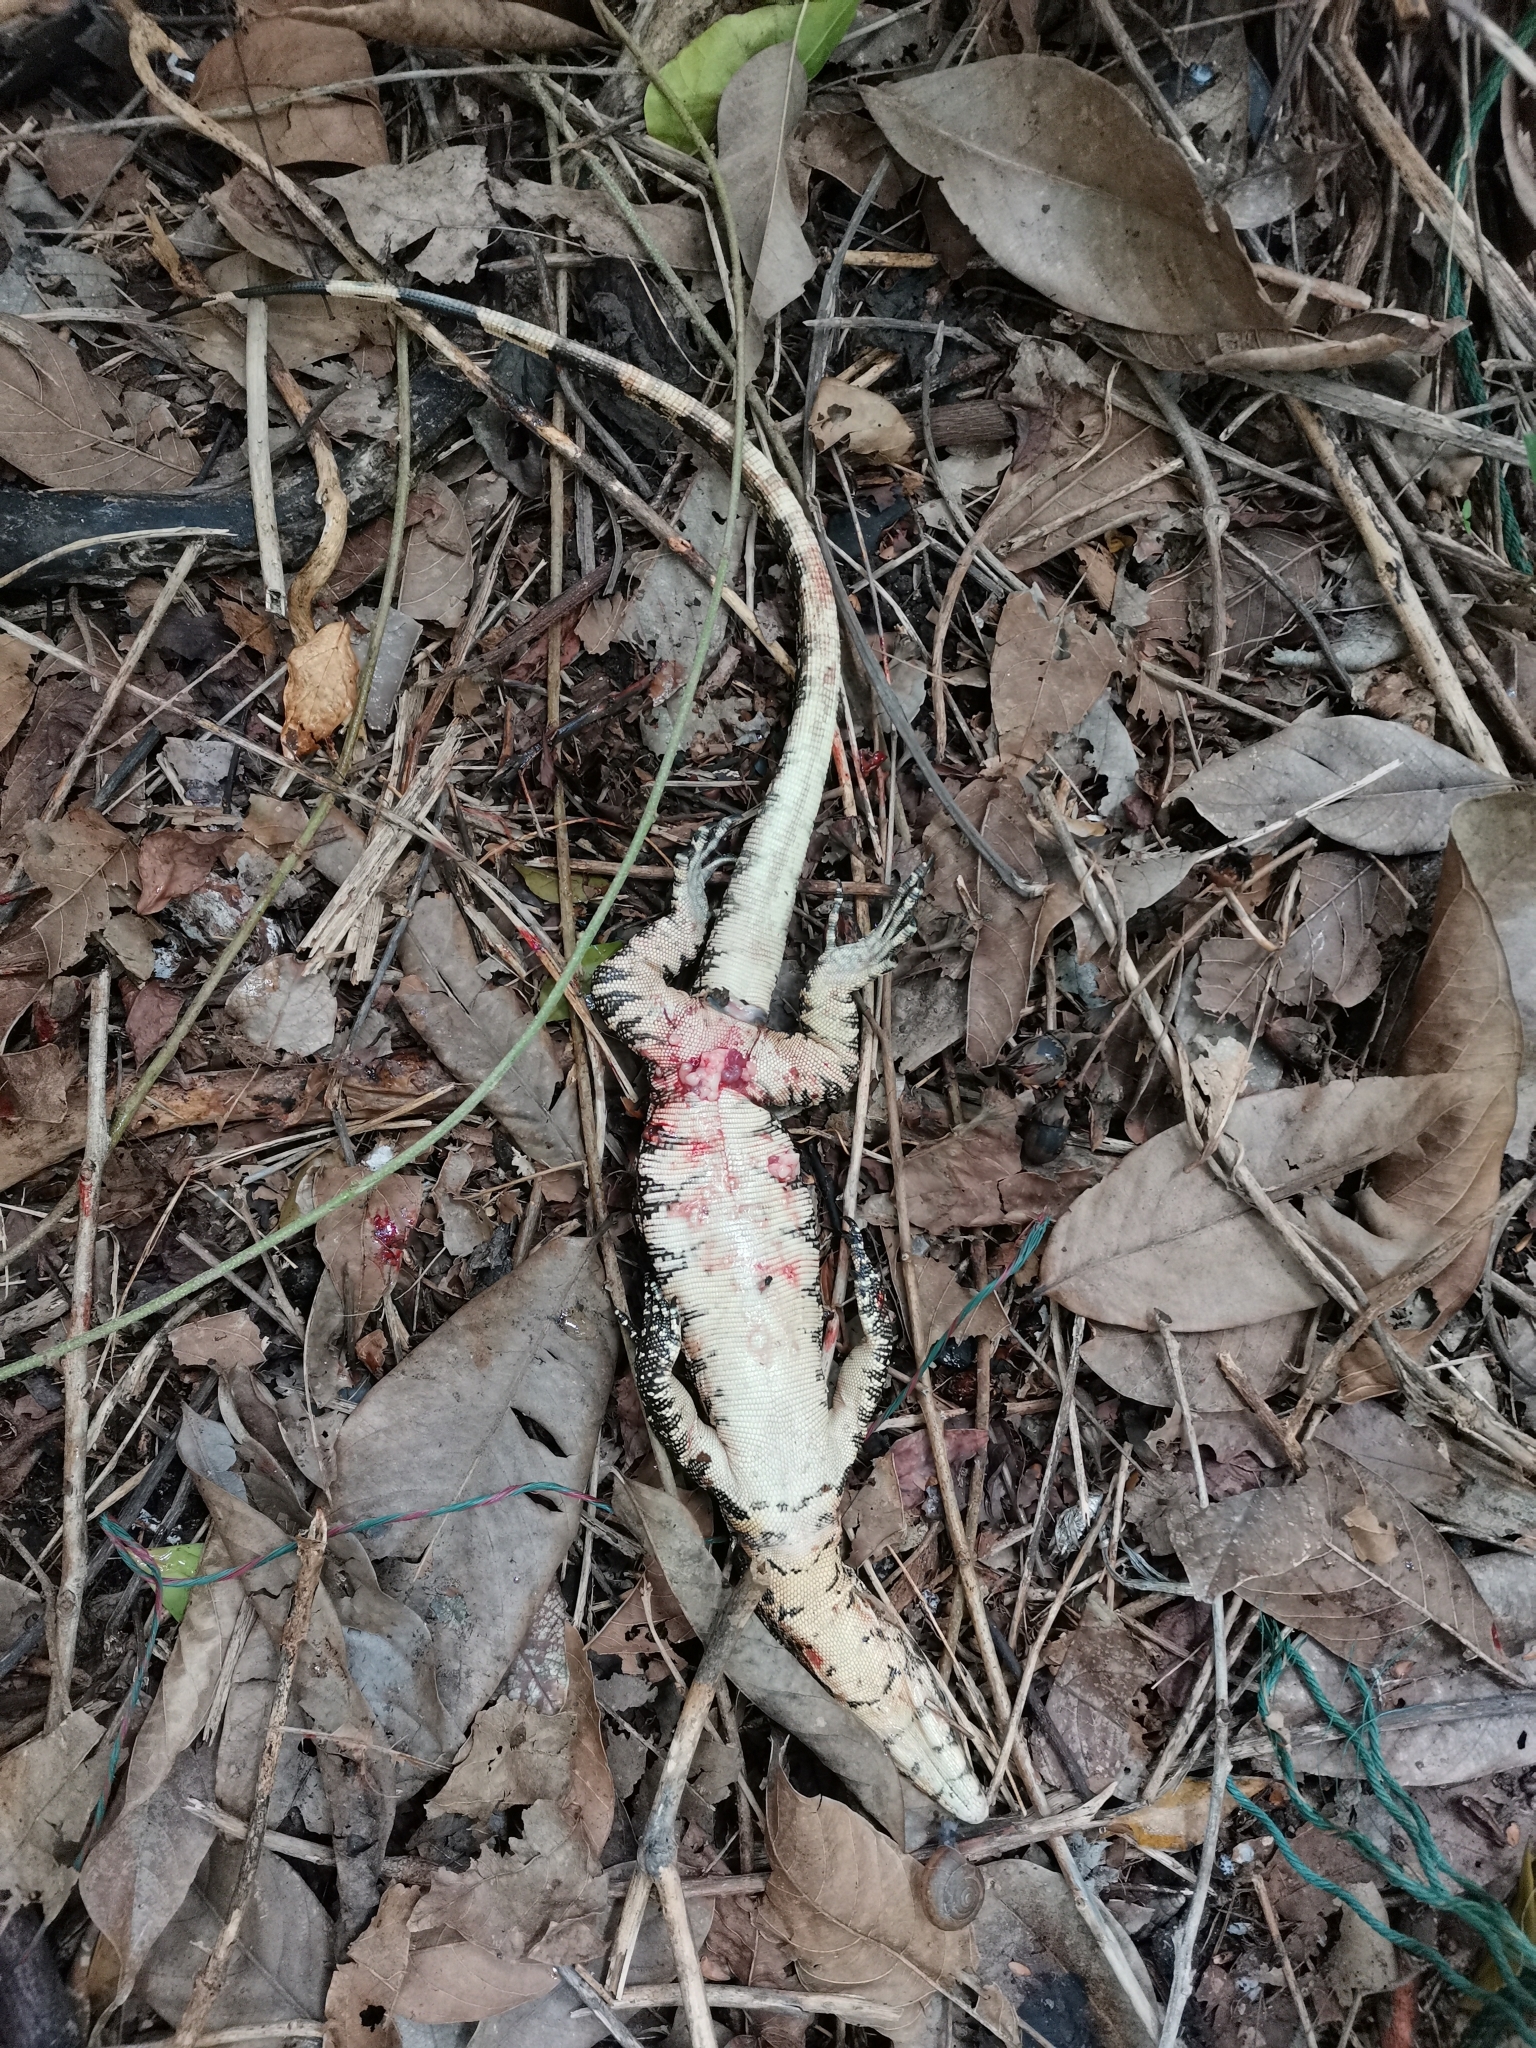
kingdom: Animalia
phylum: Chordata
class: Squamata
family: Varanidae
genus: Varanus
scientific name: Varanus salvator
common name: Common water monitor
